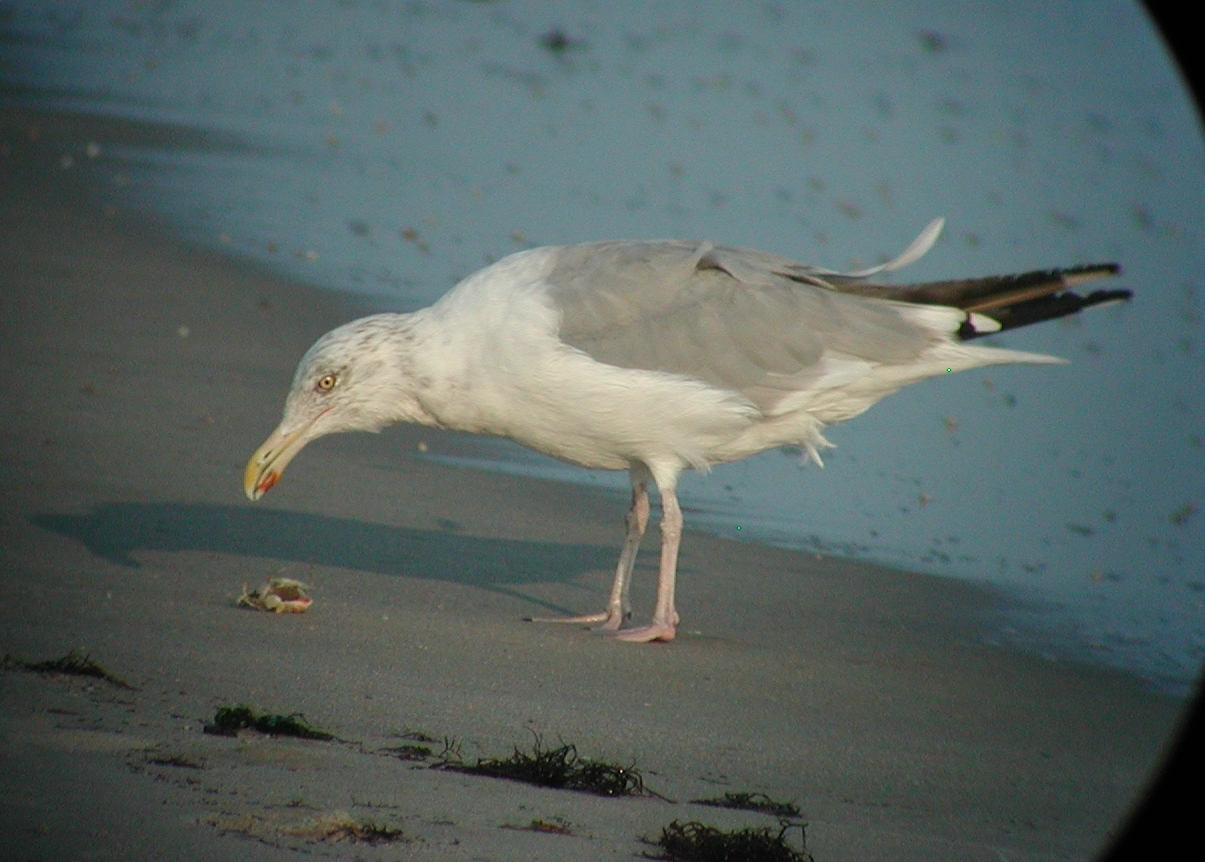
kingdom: Animalia
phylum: Chordata
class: Aves
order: Charadriiformes
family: Laridae
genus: Larus
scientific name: Larus argentatus
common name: Herring gull
